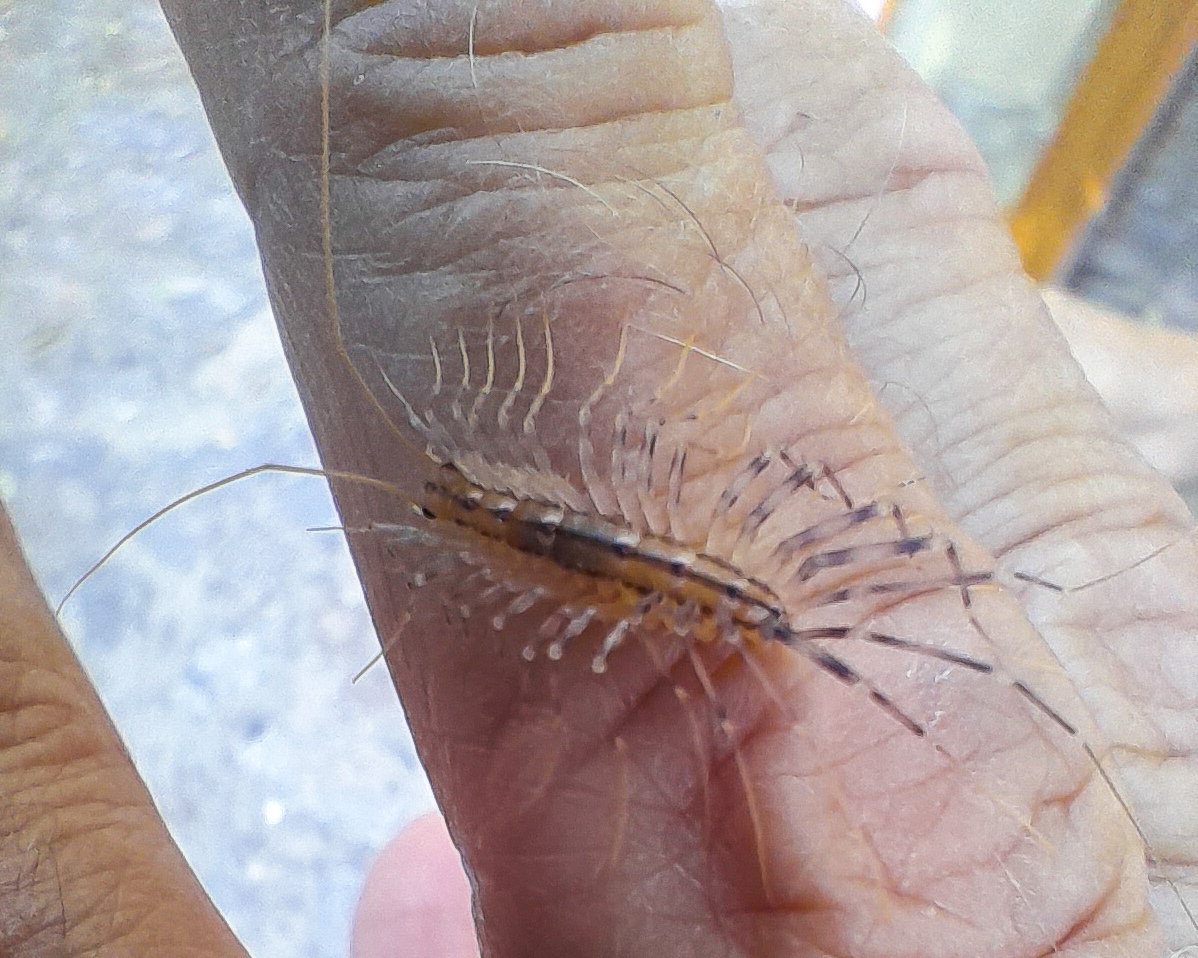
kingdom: Animalia
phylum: Arthropoda
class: Chilopoda
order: Scutigeromorpha
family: Scutigeridae
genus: Scutigera
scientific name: Scutigera coleoptrata
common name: House centipede
